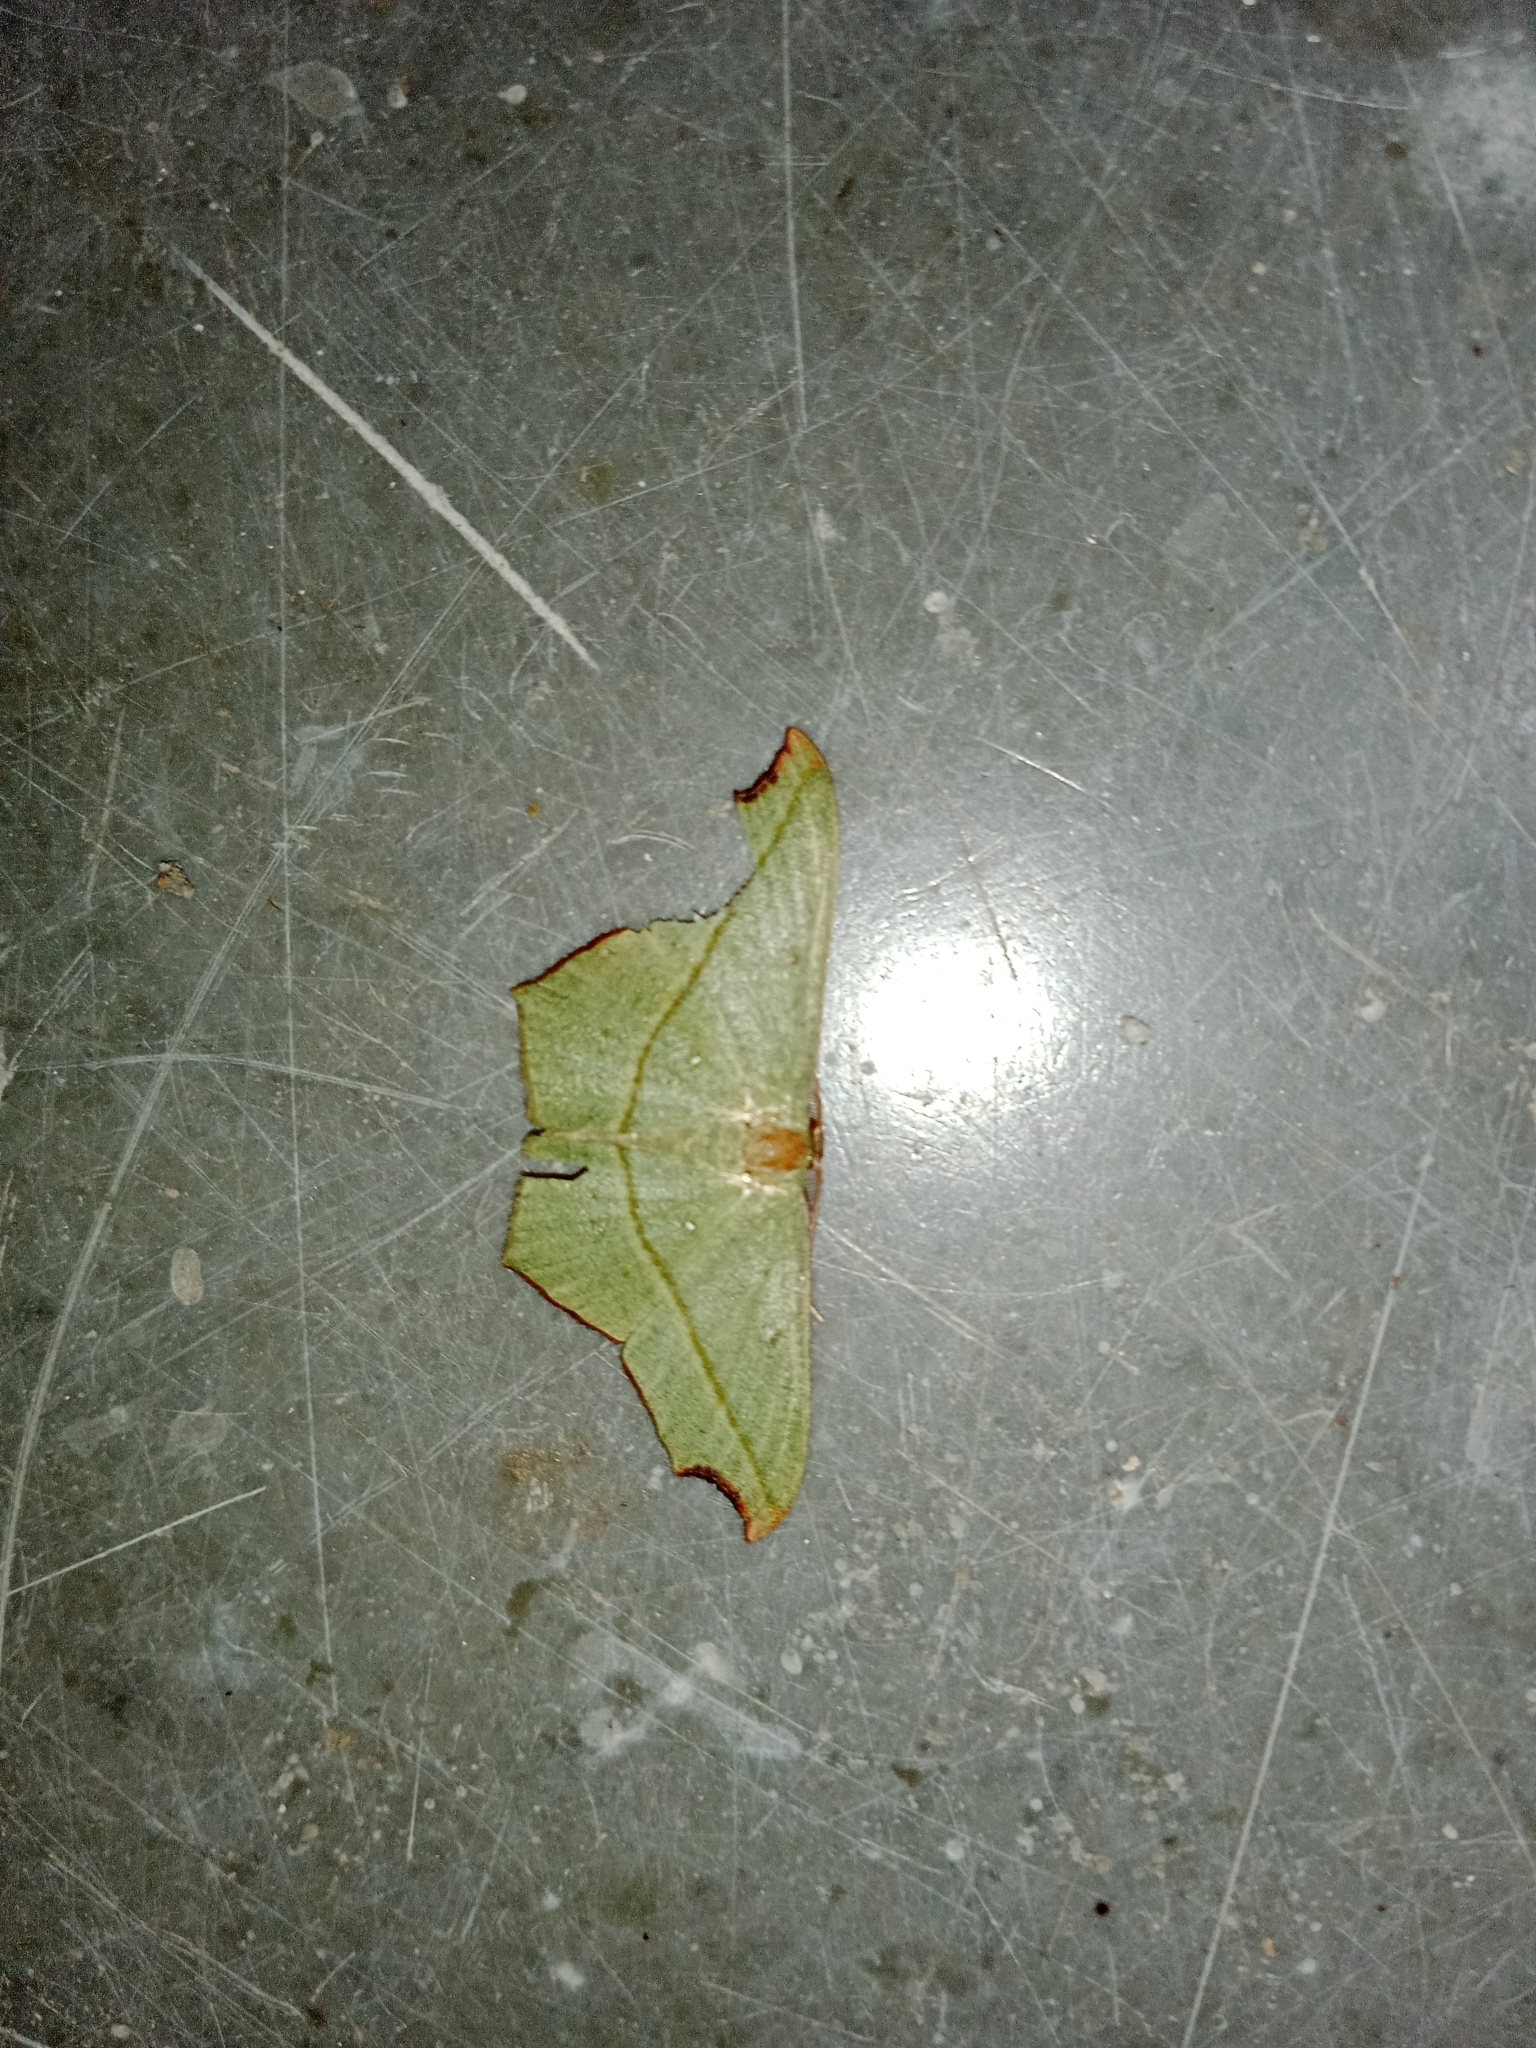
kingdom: Animalia
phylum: Arthropoda
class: Insecta
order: Lepidoptera
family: Geometridae
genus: Traminda
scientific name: Traminda aventiaria
